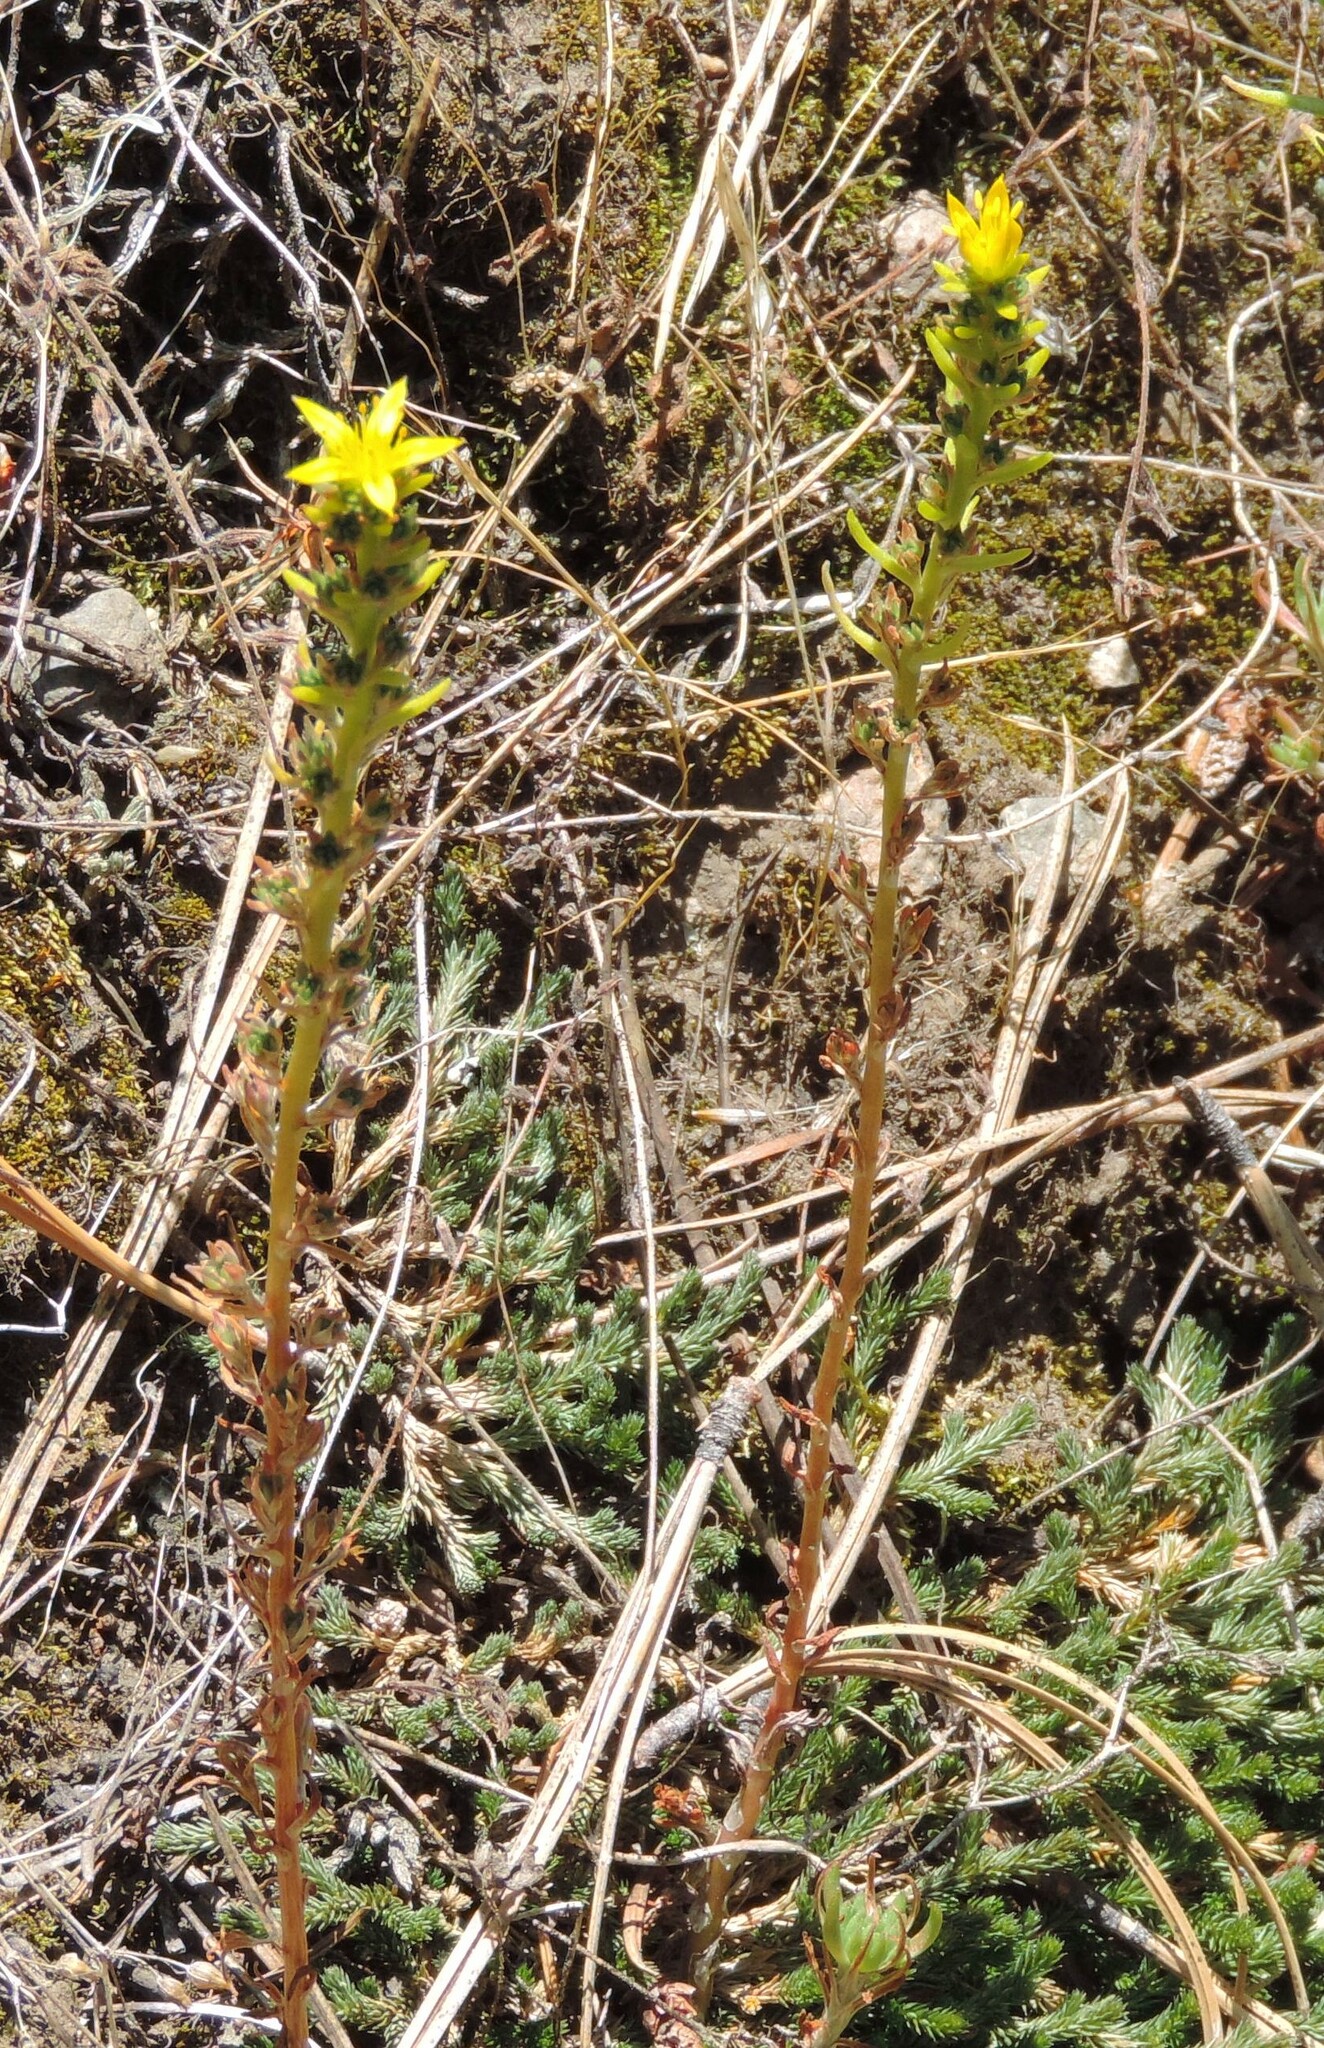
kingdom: Plantae
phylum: Tracheophyta
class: Magnoliopsida
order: Saxifragales
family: Crassulaceae
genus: Sedum
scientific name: Sedum stenopetalum
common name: Narrow-petaled stonecrop
